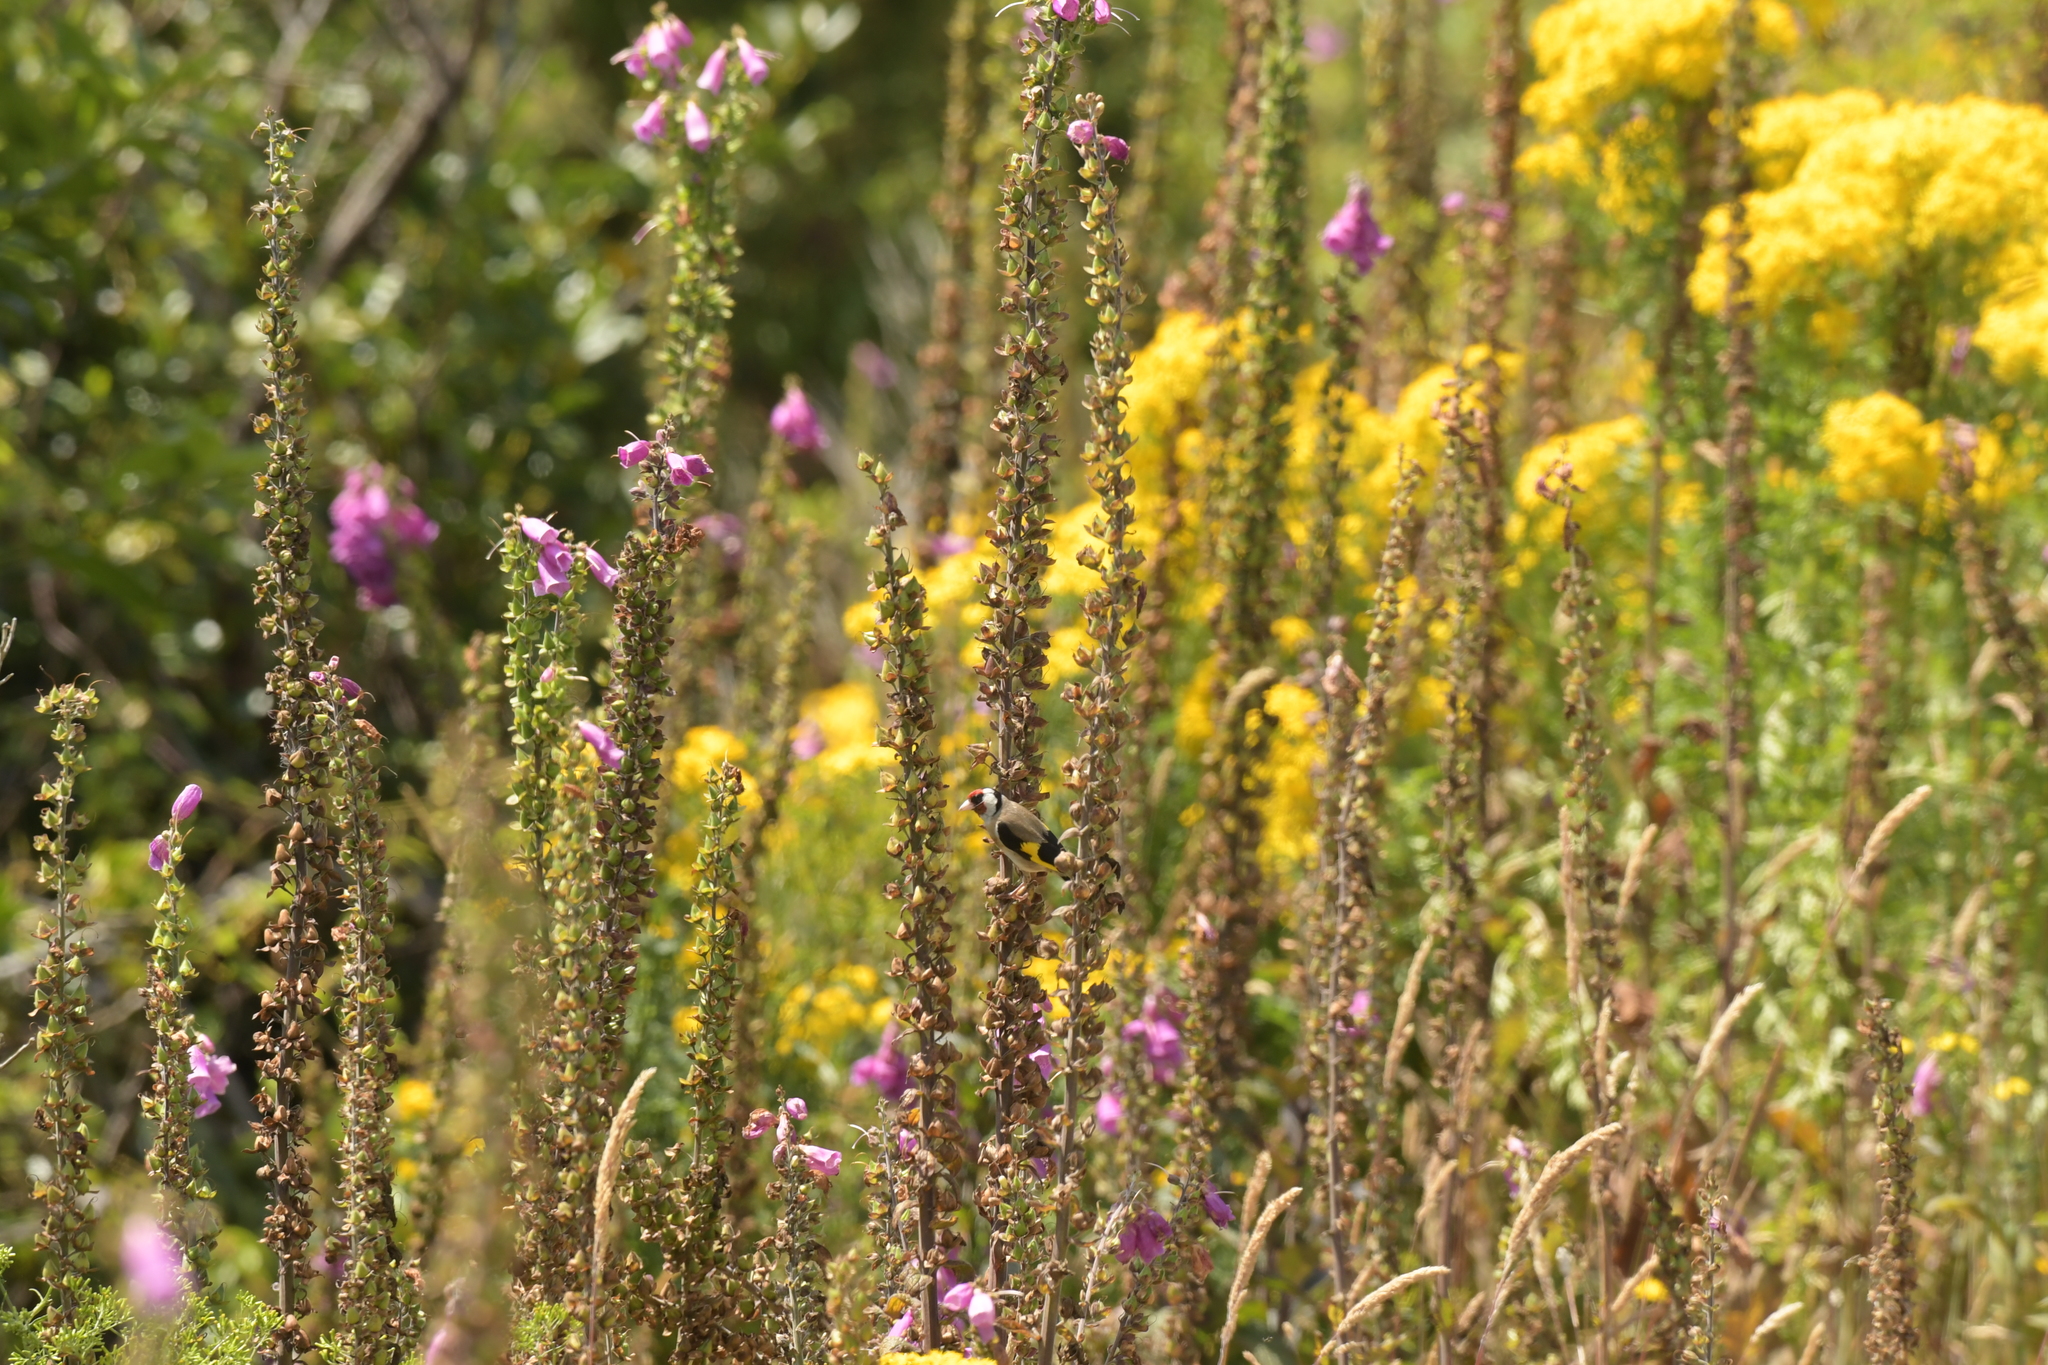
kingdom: Animalia
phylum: Chordata
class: Aves
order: Passeriformes
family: Fringillidae
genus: Carduelis
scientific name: Carduelis carduelis
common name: European goldfinch
